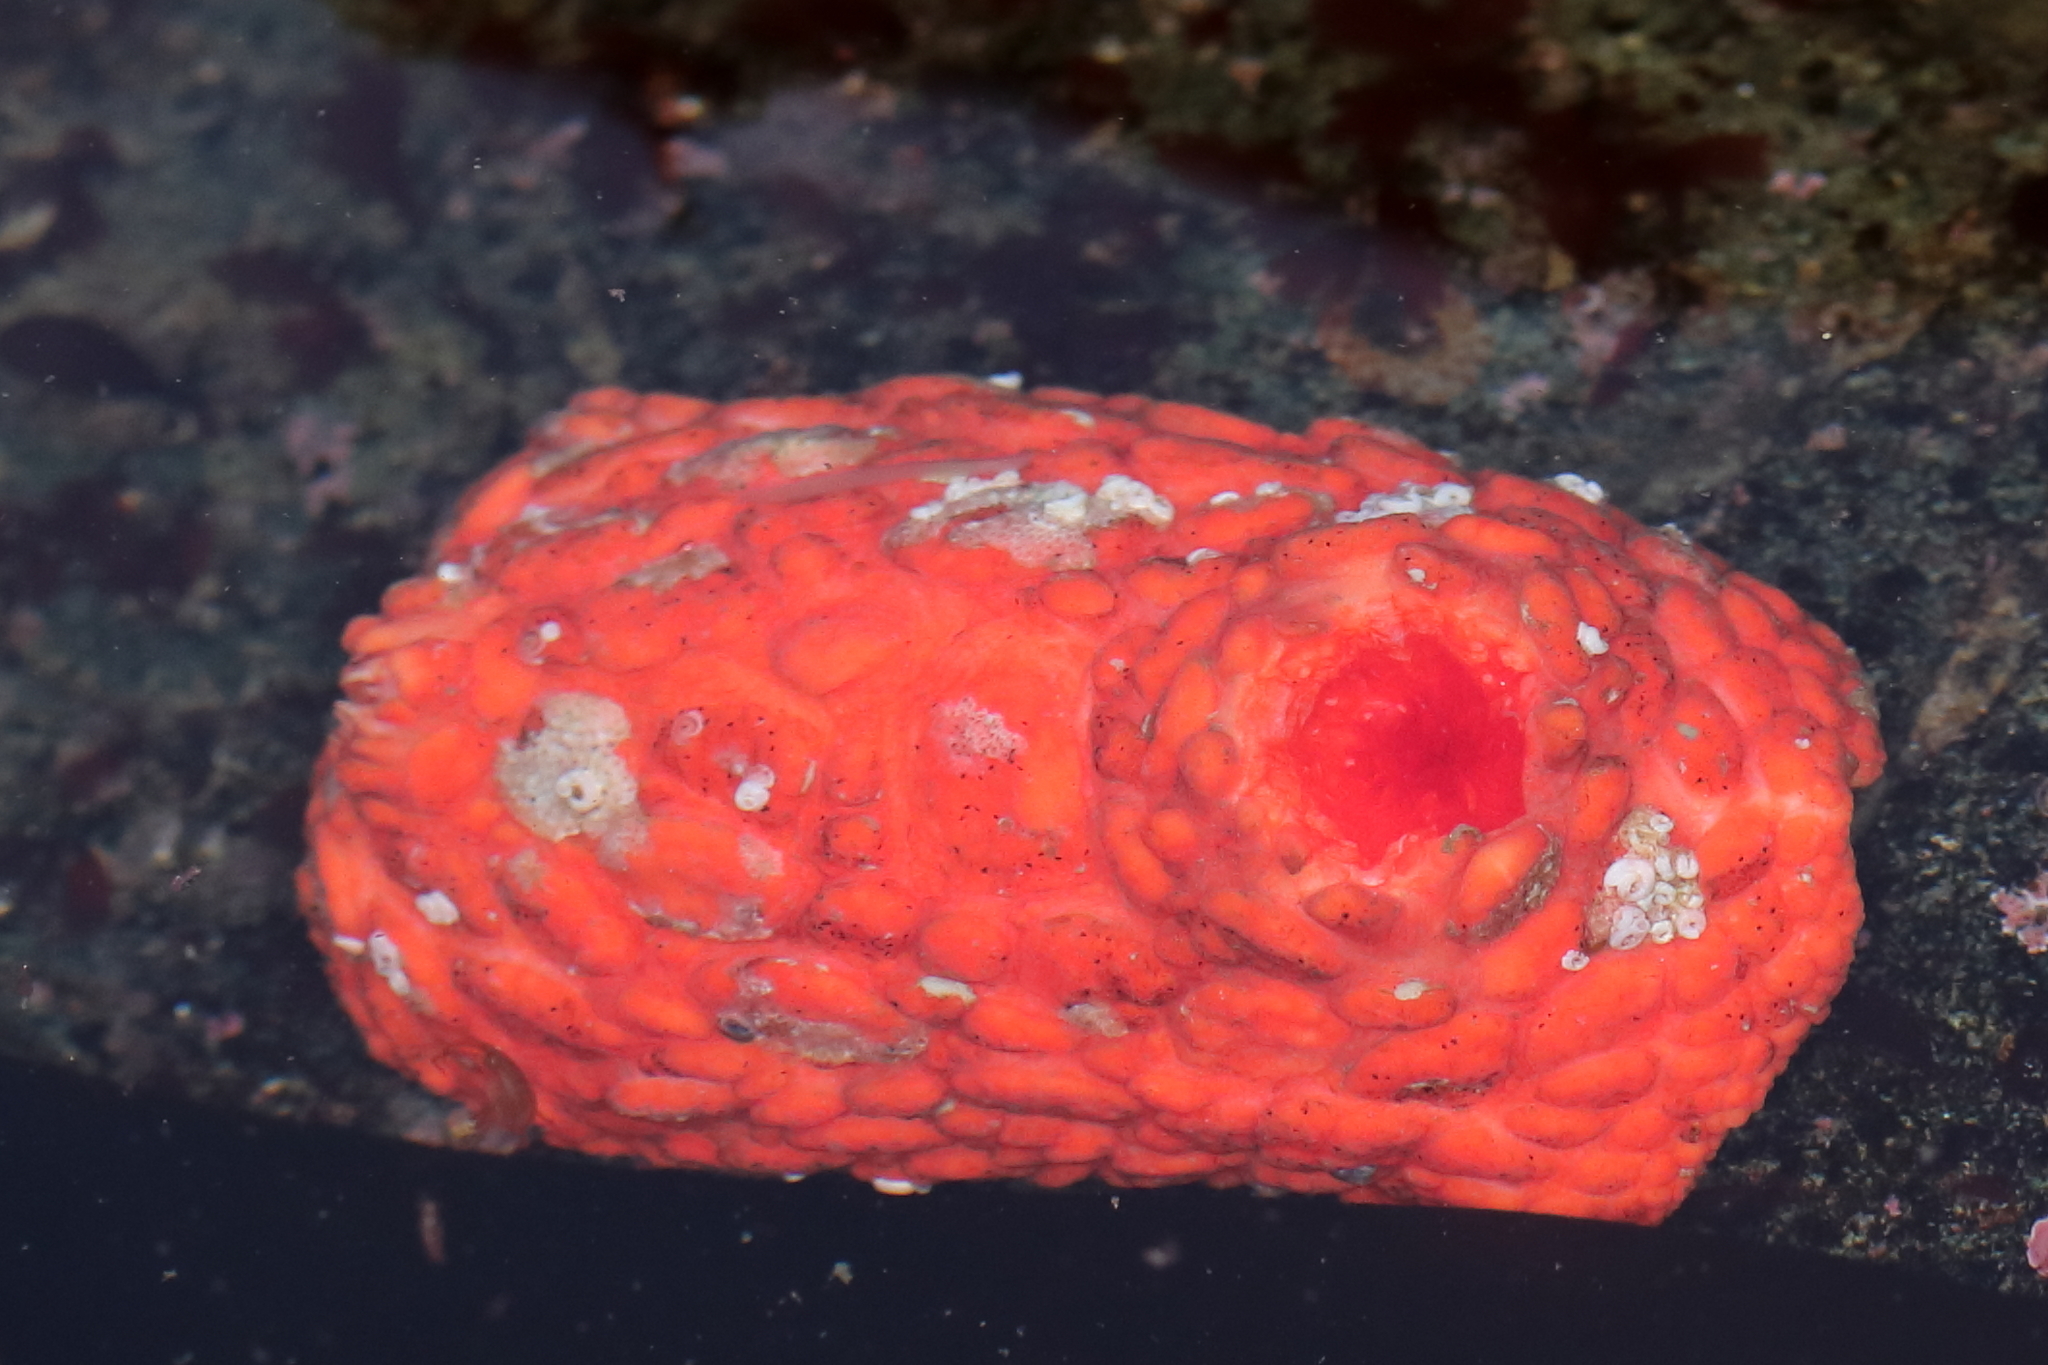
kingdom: Animalia
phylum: Echinodermata
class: Holothuroidea
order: Dendrochirotida
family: Psolidae
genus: Psolus
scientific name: Psolus chitonoides
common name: Creeping pedal sea cucumber
